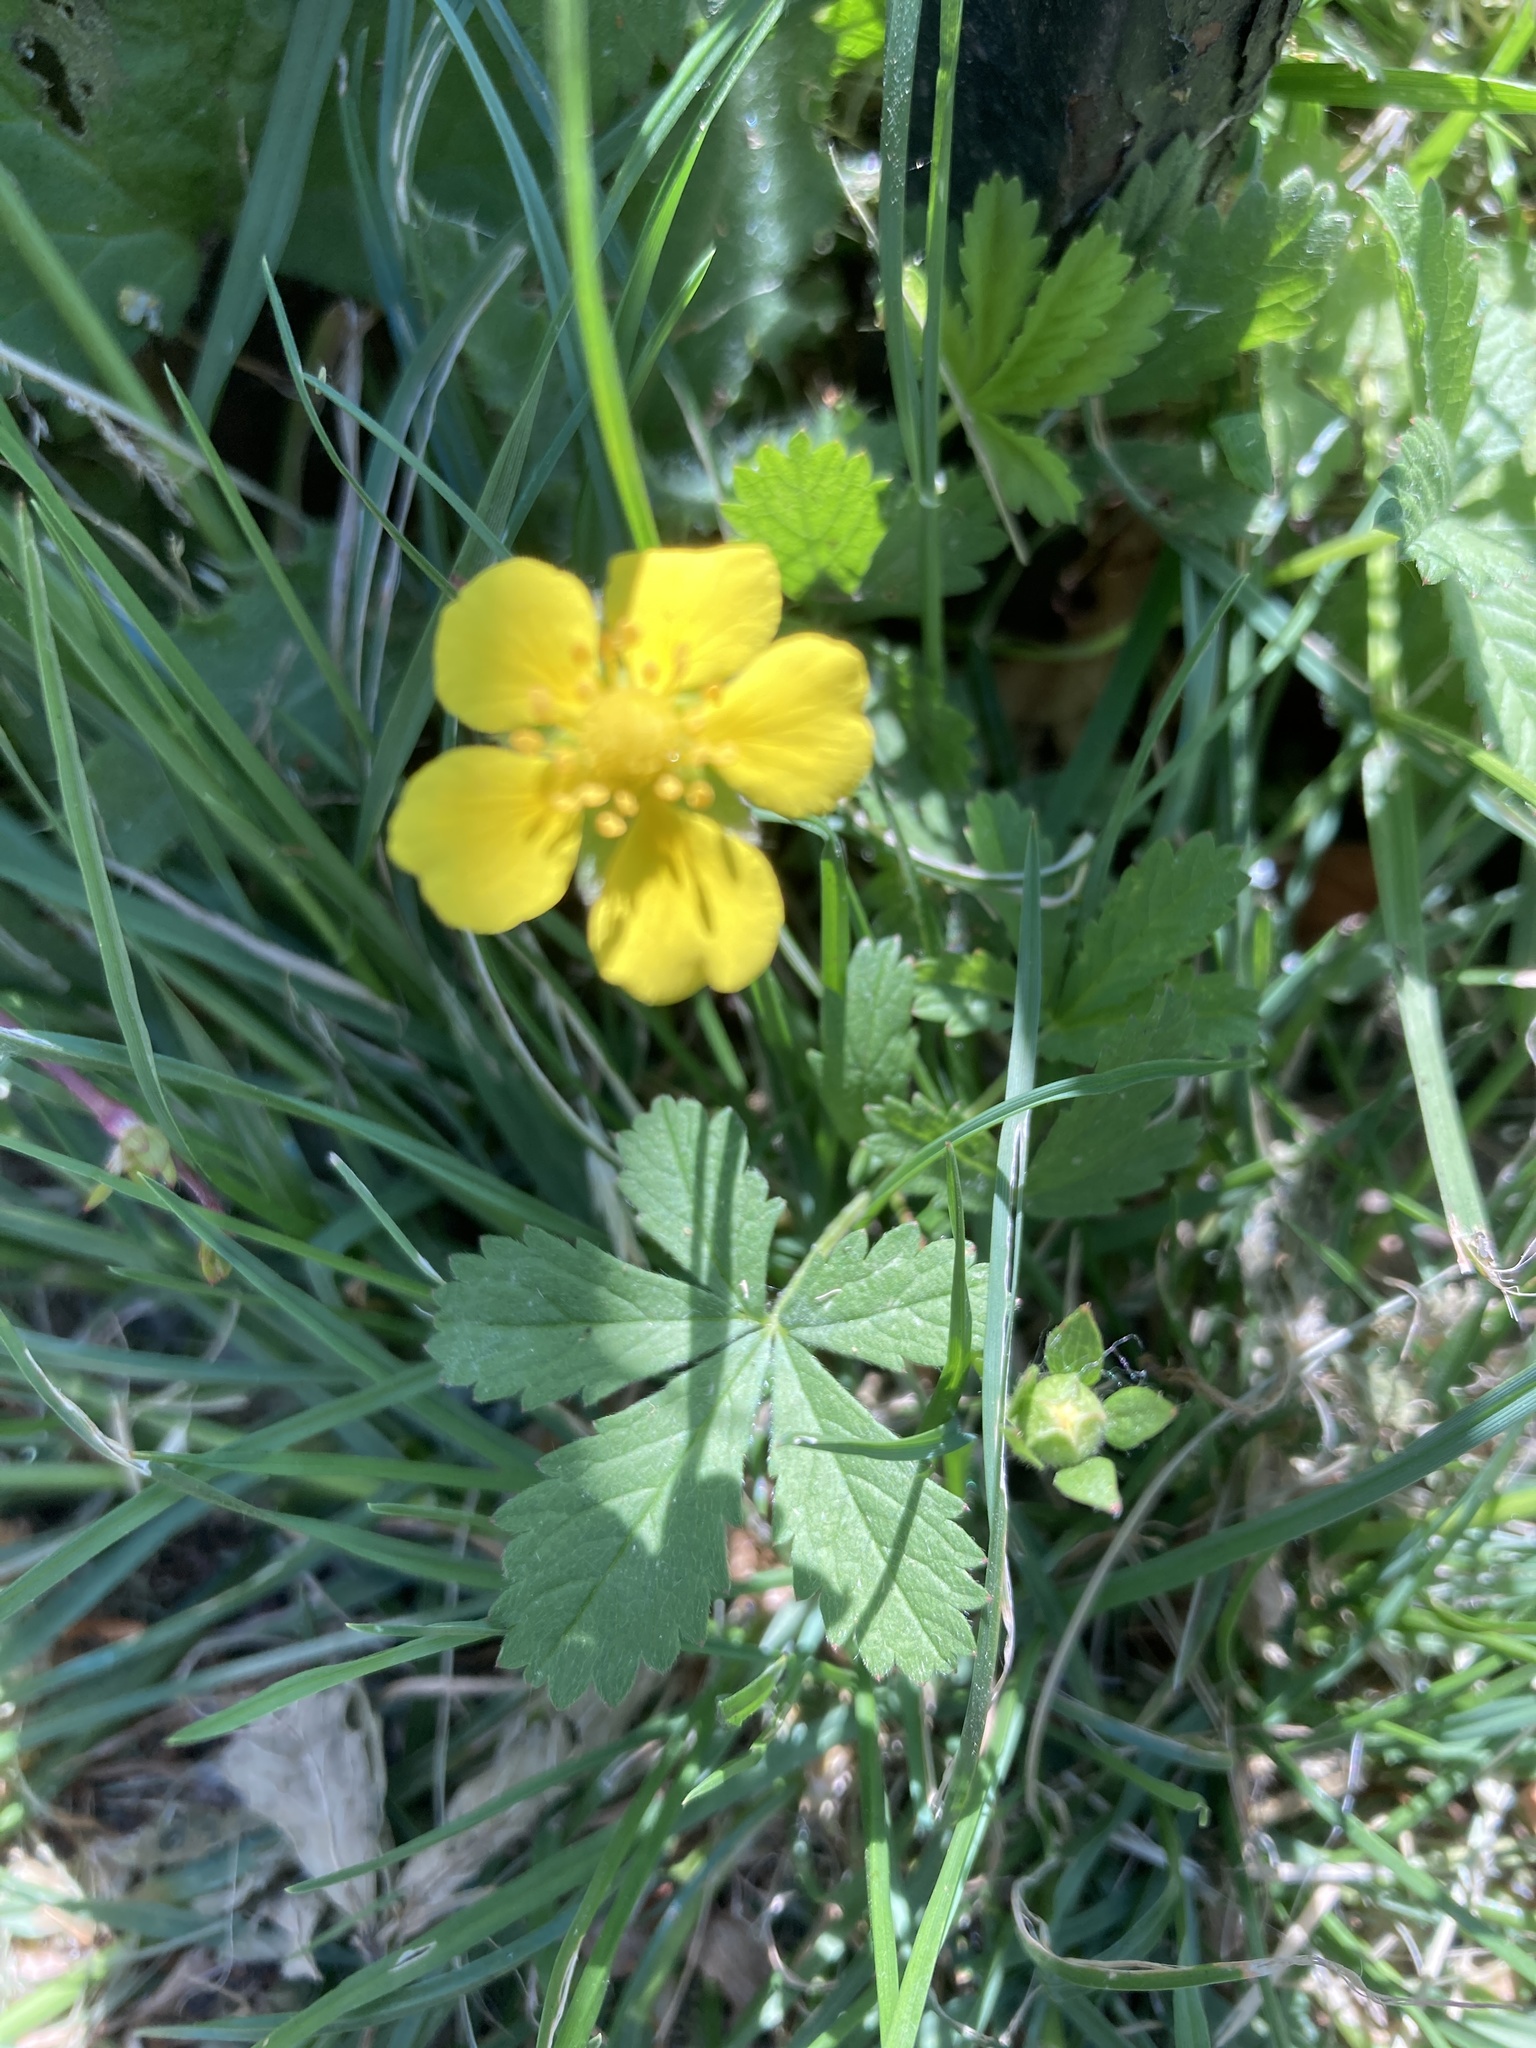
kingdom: Plantae
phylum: Tracheophyta
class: Magnoliopsida
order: Rosales
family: Rosaceae
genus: Potentilla
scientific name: Potentilla reptans
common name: Creeping cinquefoil
